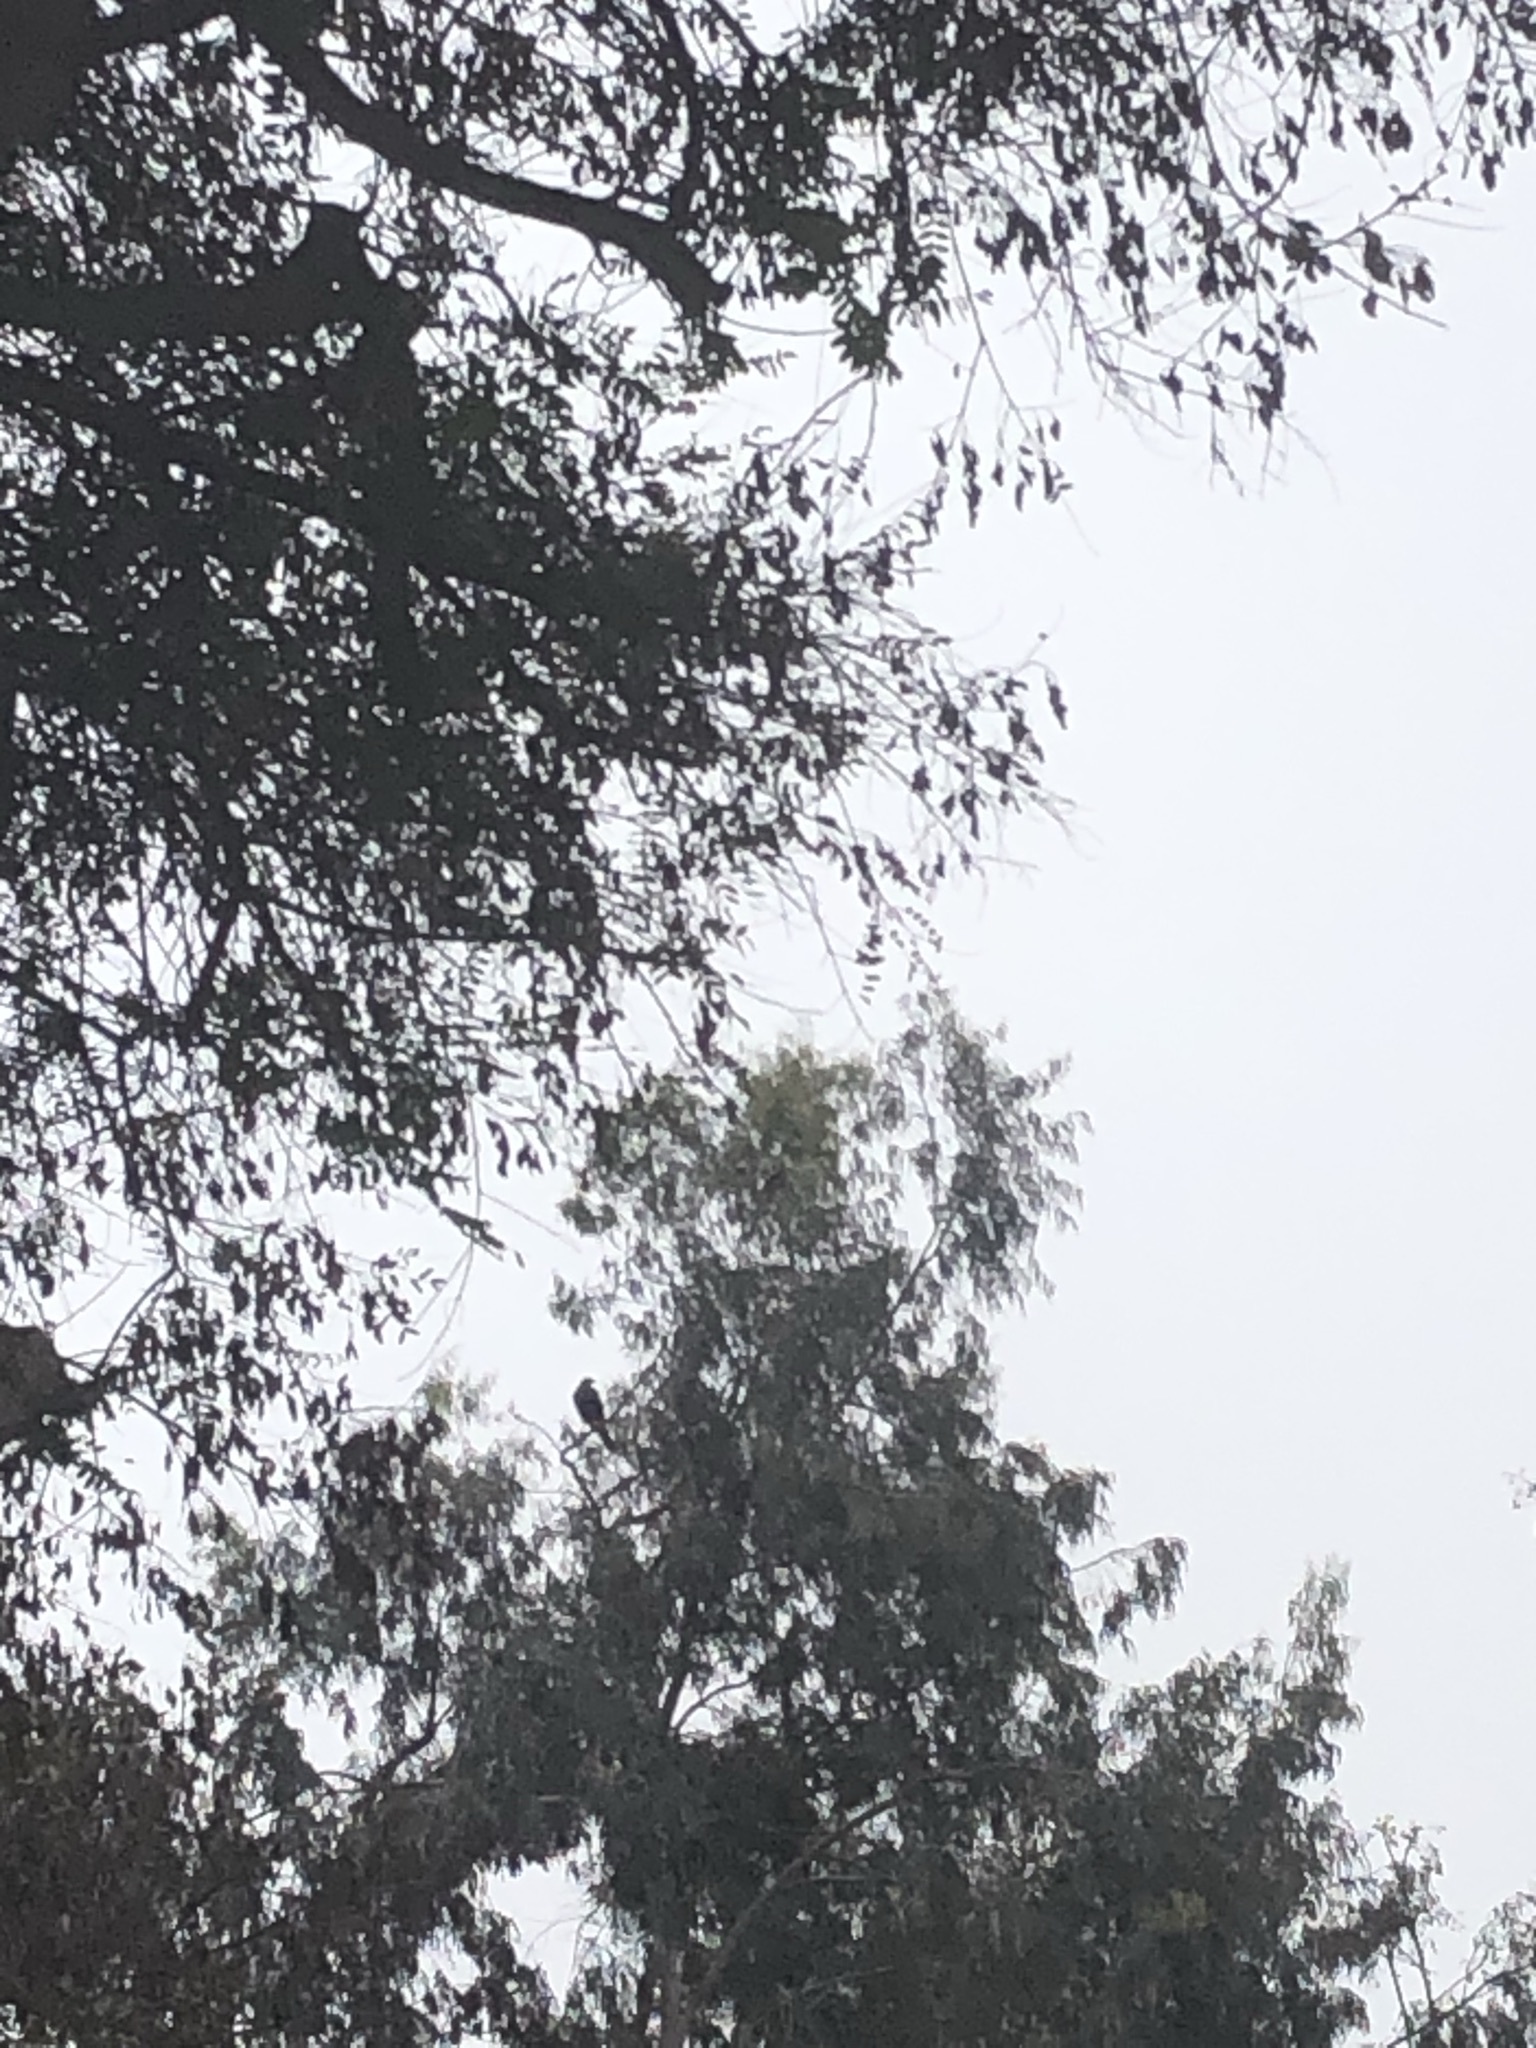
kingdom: Animalia
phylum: Chordata
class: Aves
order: Accipitriformes
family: Accipitridae
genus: Parabuteo
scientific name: Parabuteo unicinctus
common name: Harris's hawk
